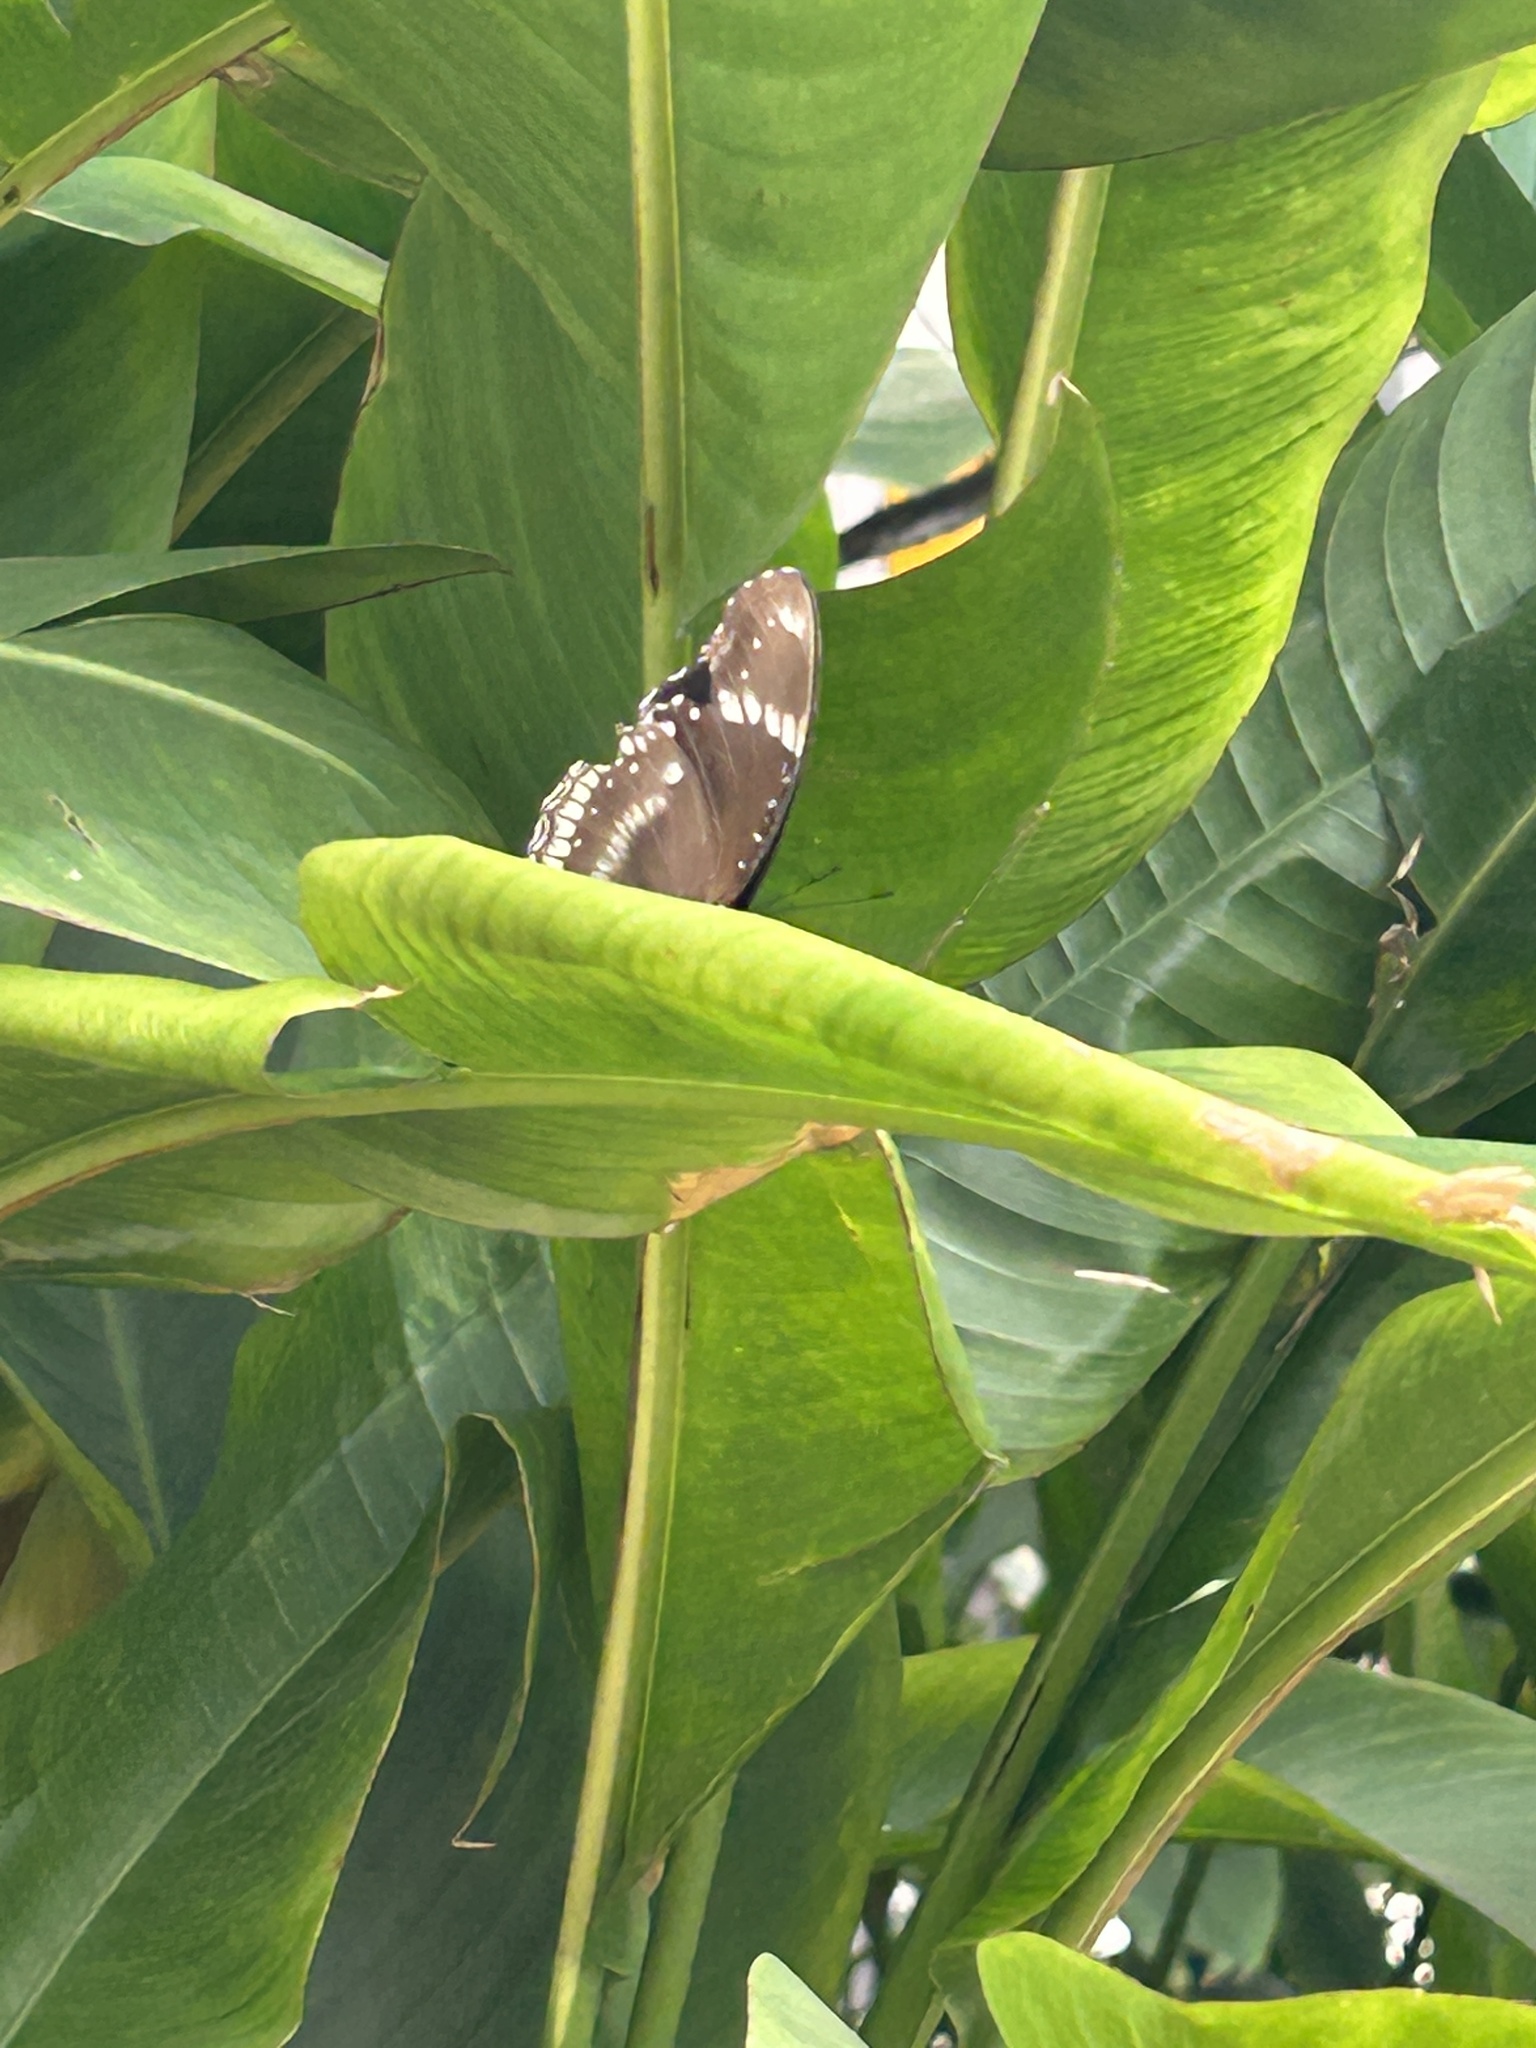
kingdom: Animalia
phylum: Arthropoda
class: Insecta
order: Lepidoptera
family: Nymphalidae
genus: Hypolimnas
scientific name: Hypolimnas bolina
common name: Great eggfly
